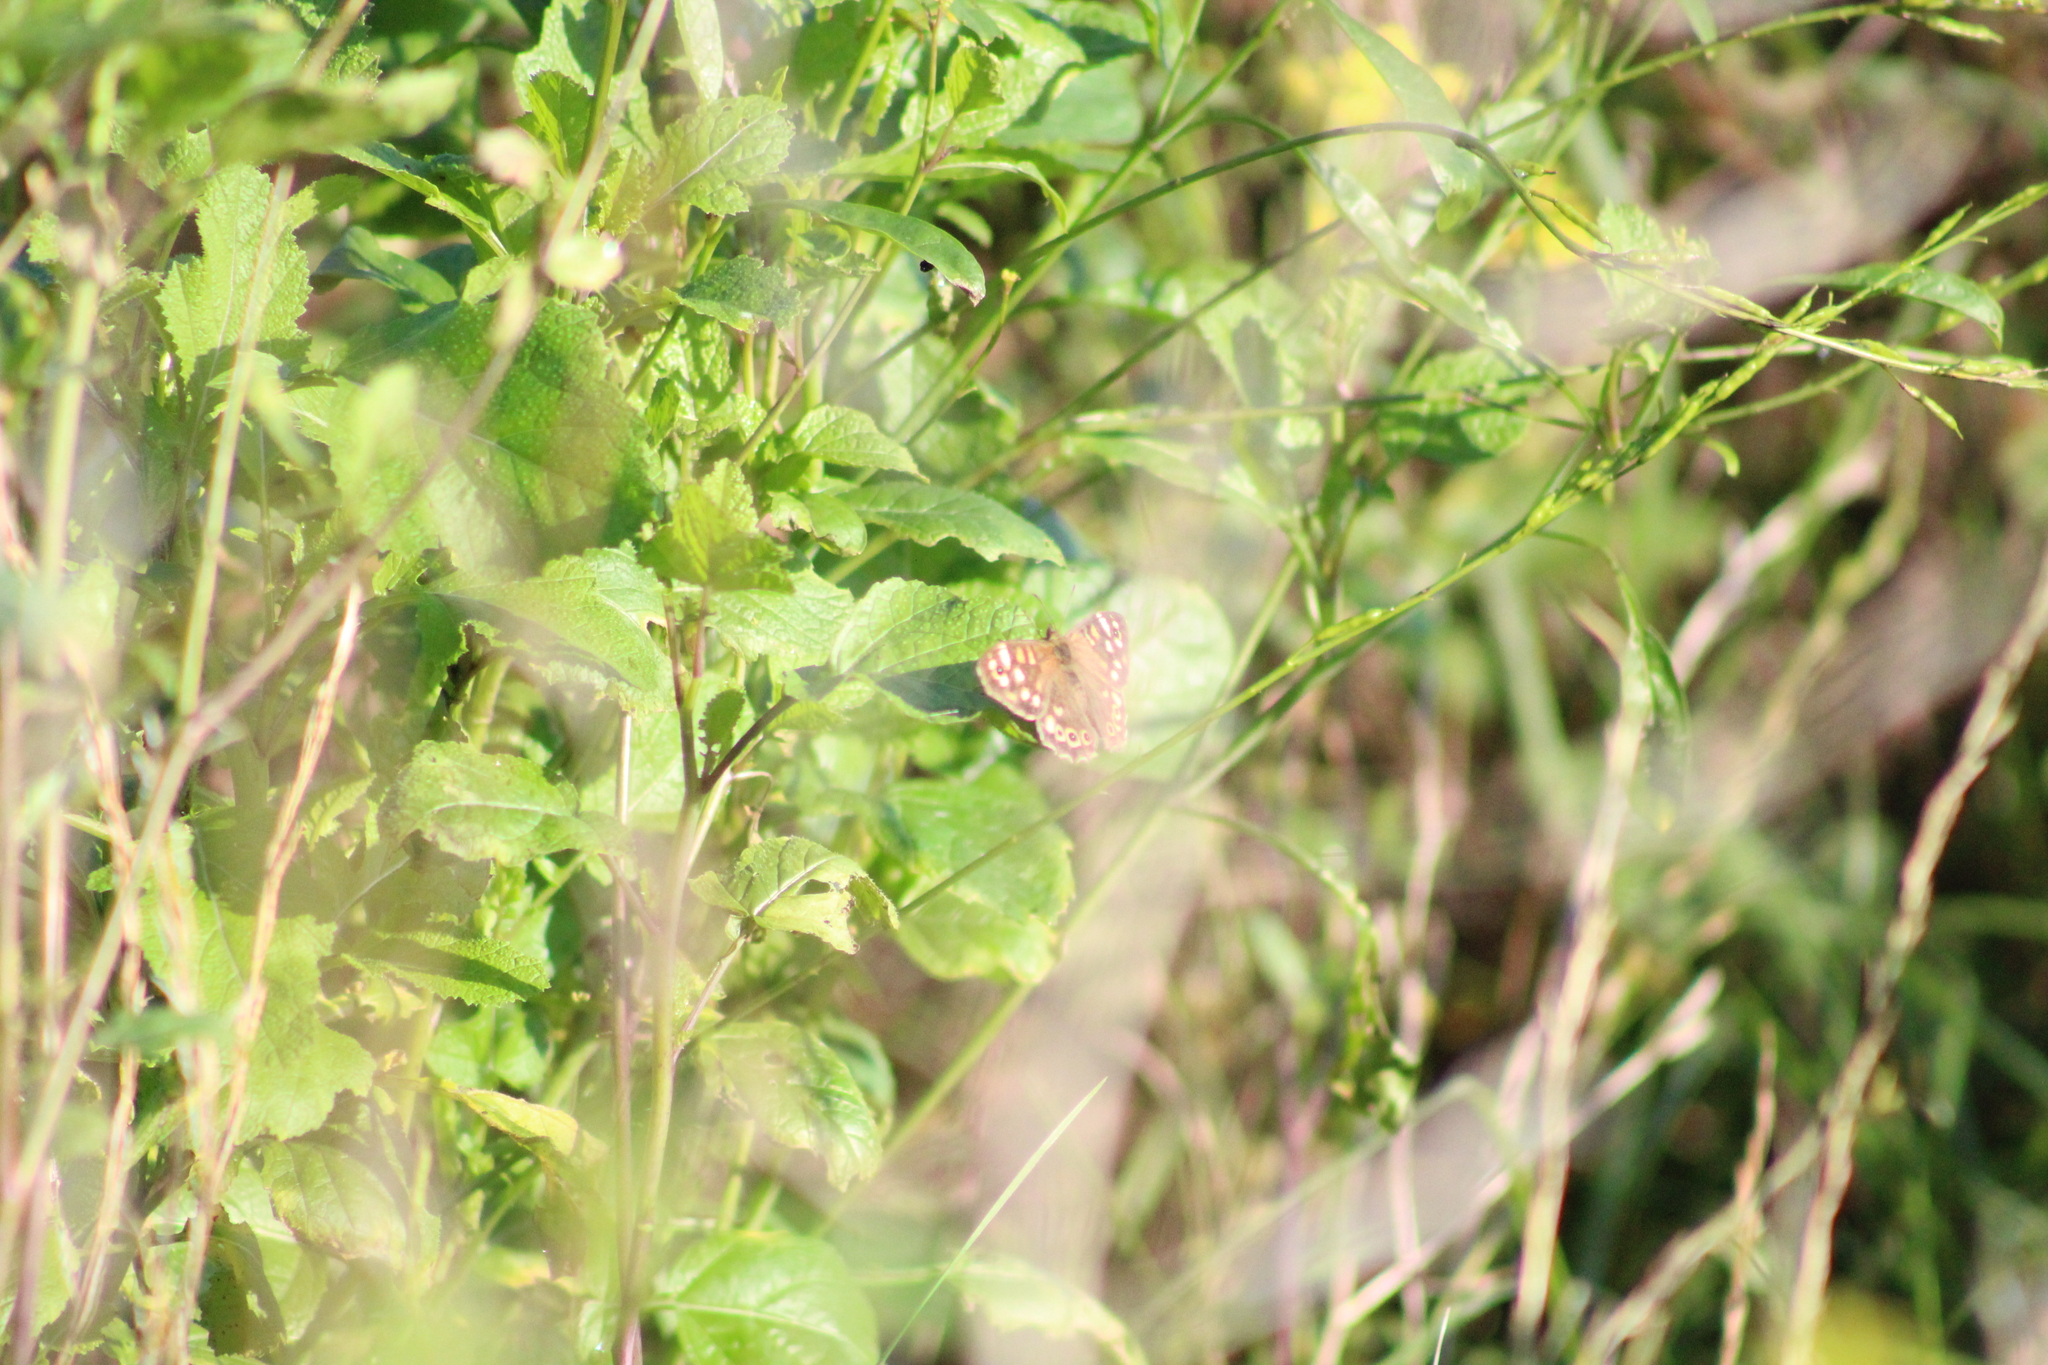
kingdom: Animalia
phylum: Arthropoda
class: Insecta
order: Lepidoptera
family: Nymphalidae
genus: Pararge
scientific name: Pararge aegeria
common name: Speckled wood
